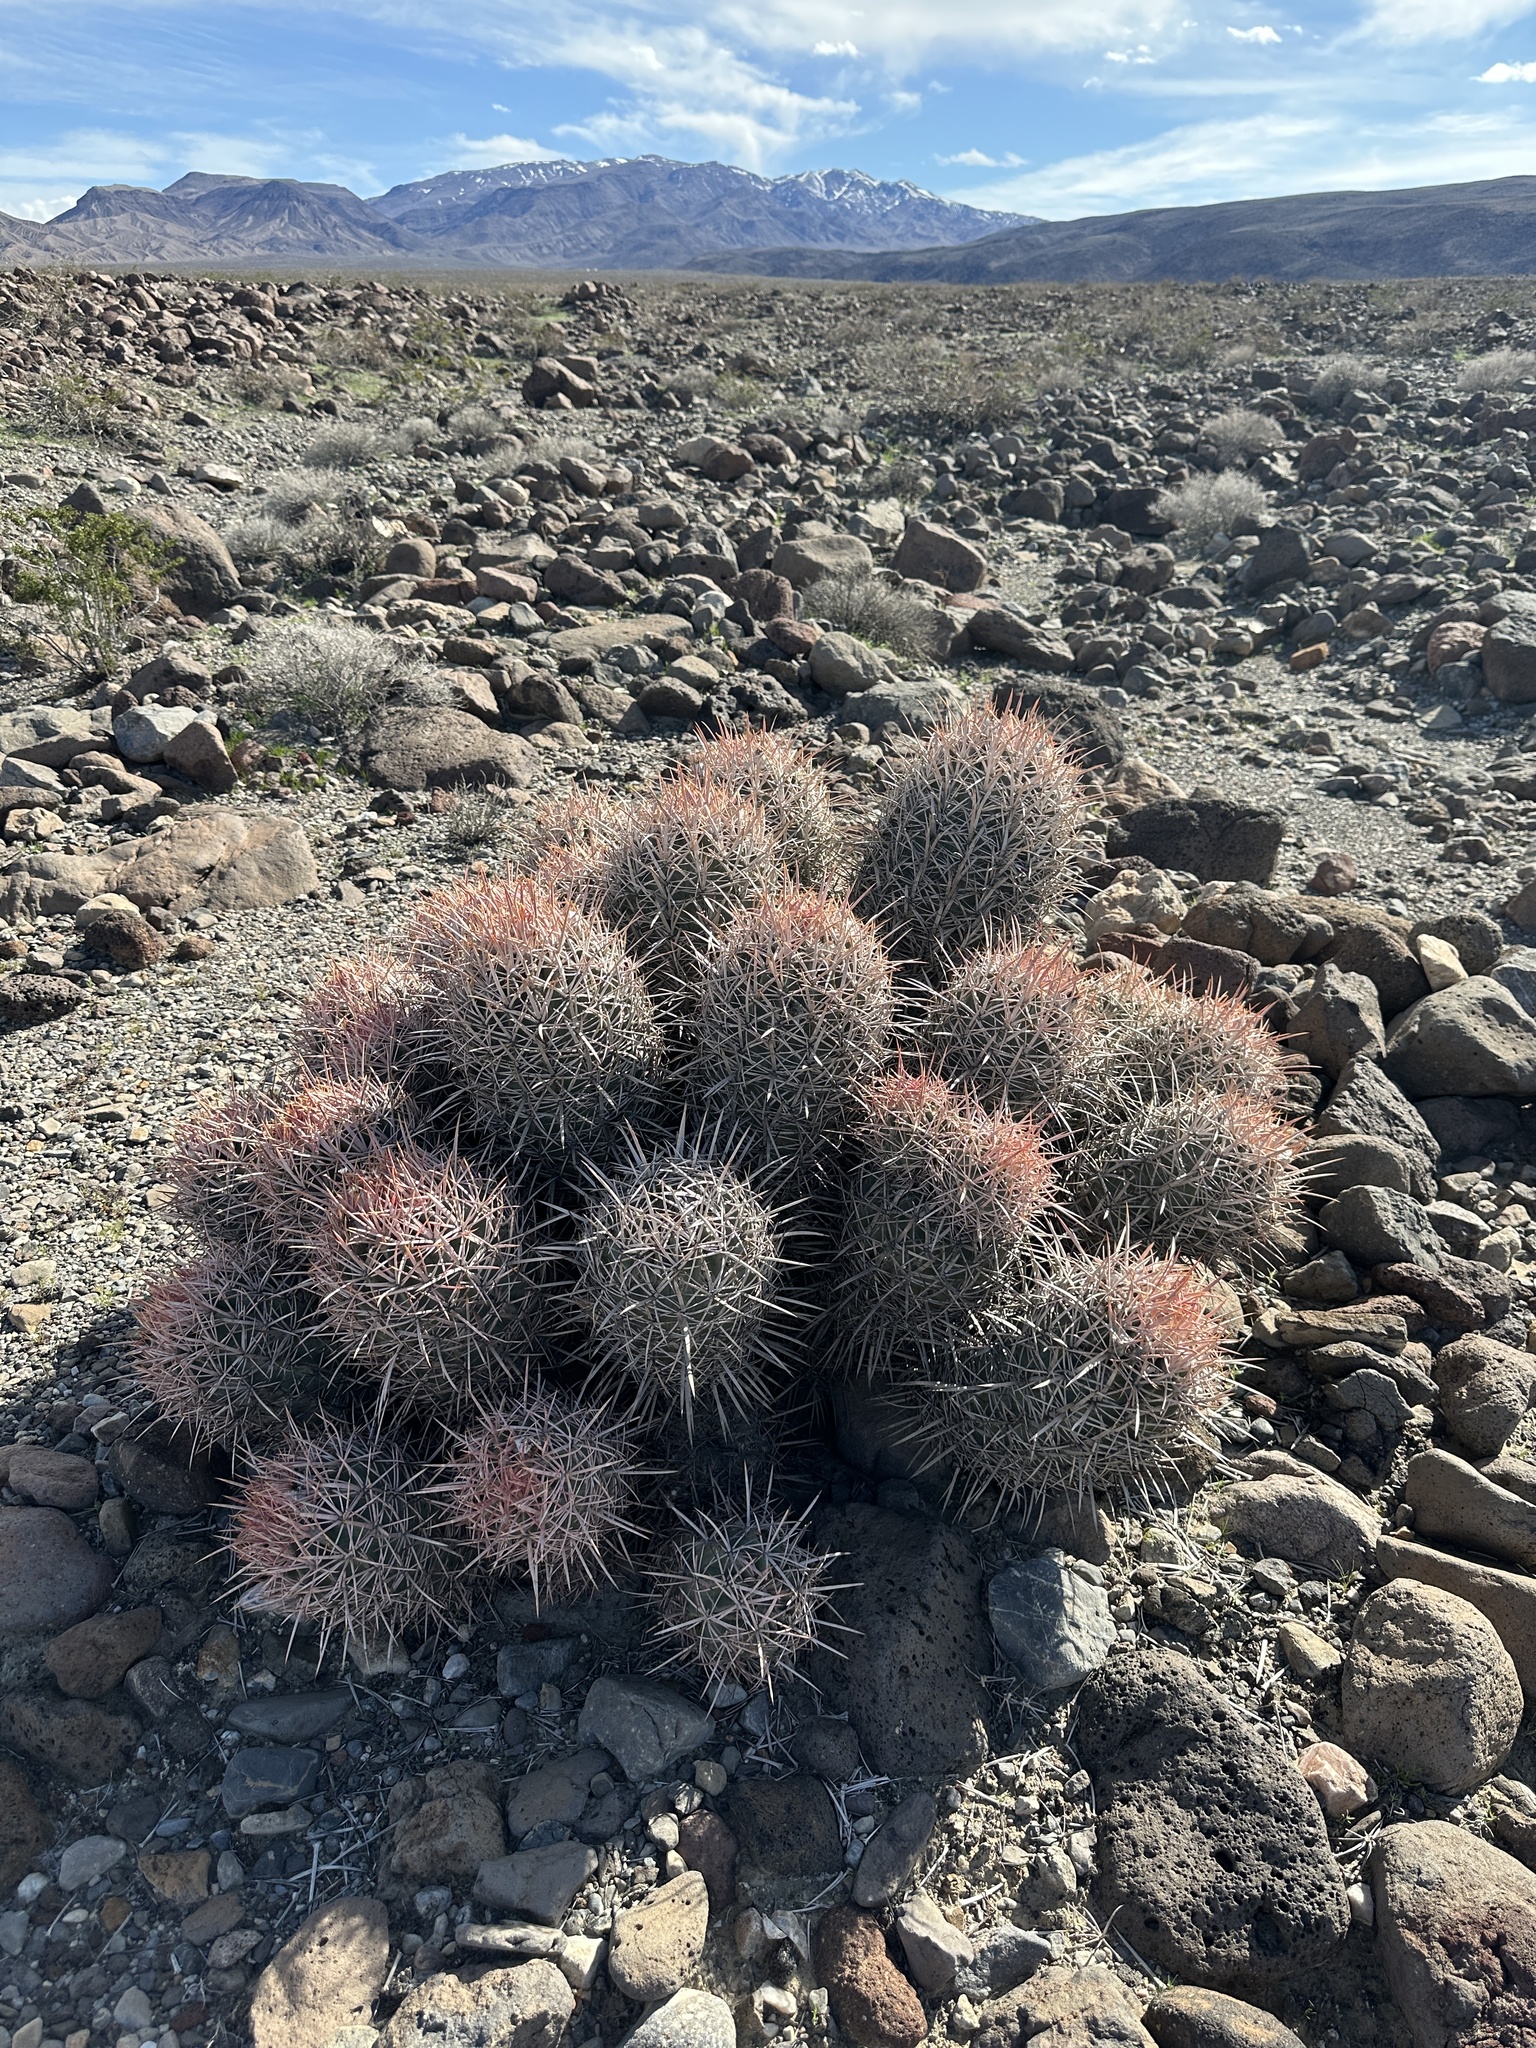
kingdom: Plantae
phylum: Tracheophyta
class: Magnoliopsida
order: Caryophyllales
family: Cactaceae
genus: Echinocactus
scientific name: Echinocactus polycephalus
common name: Cottontop cactus
